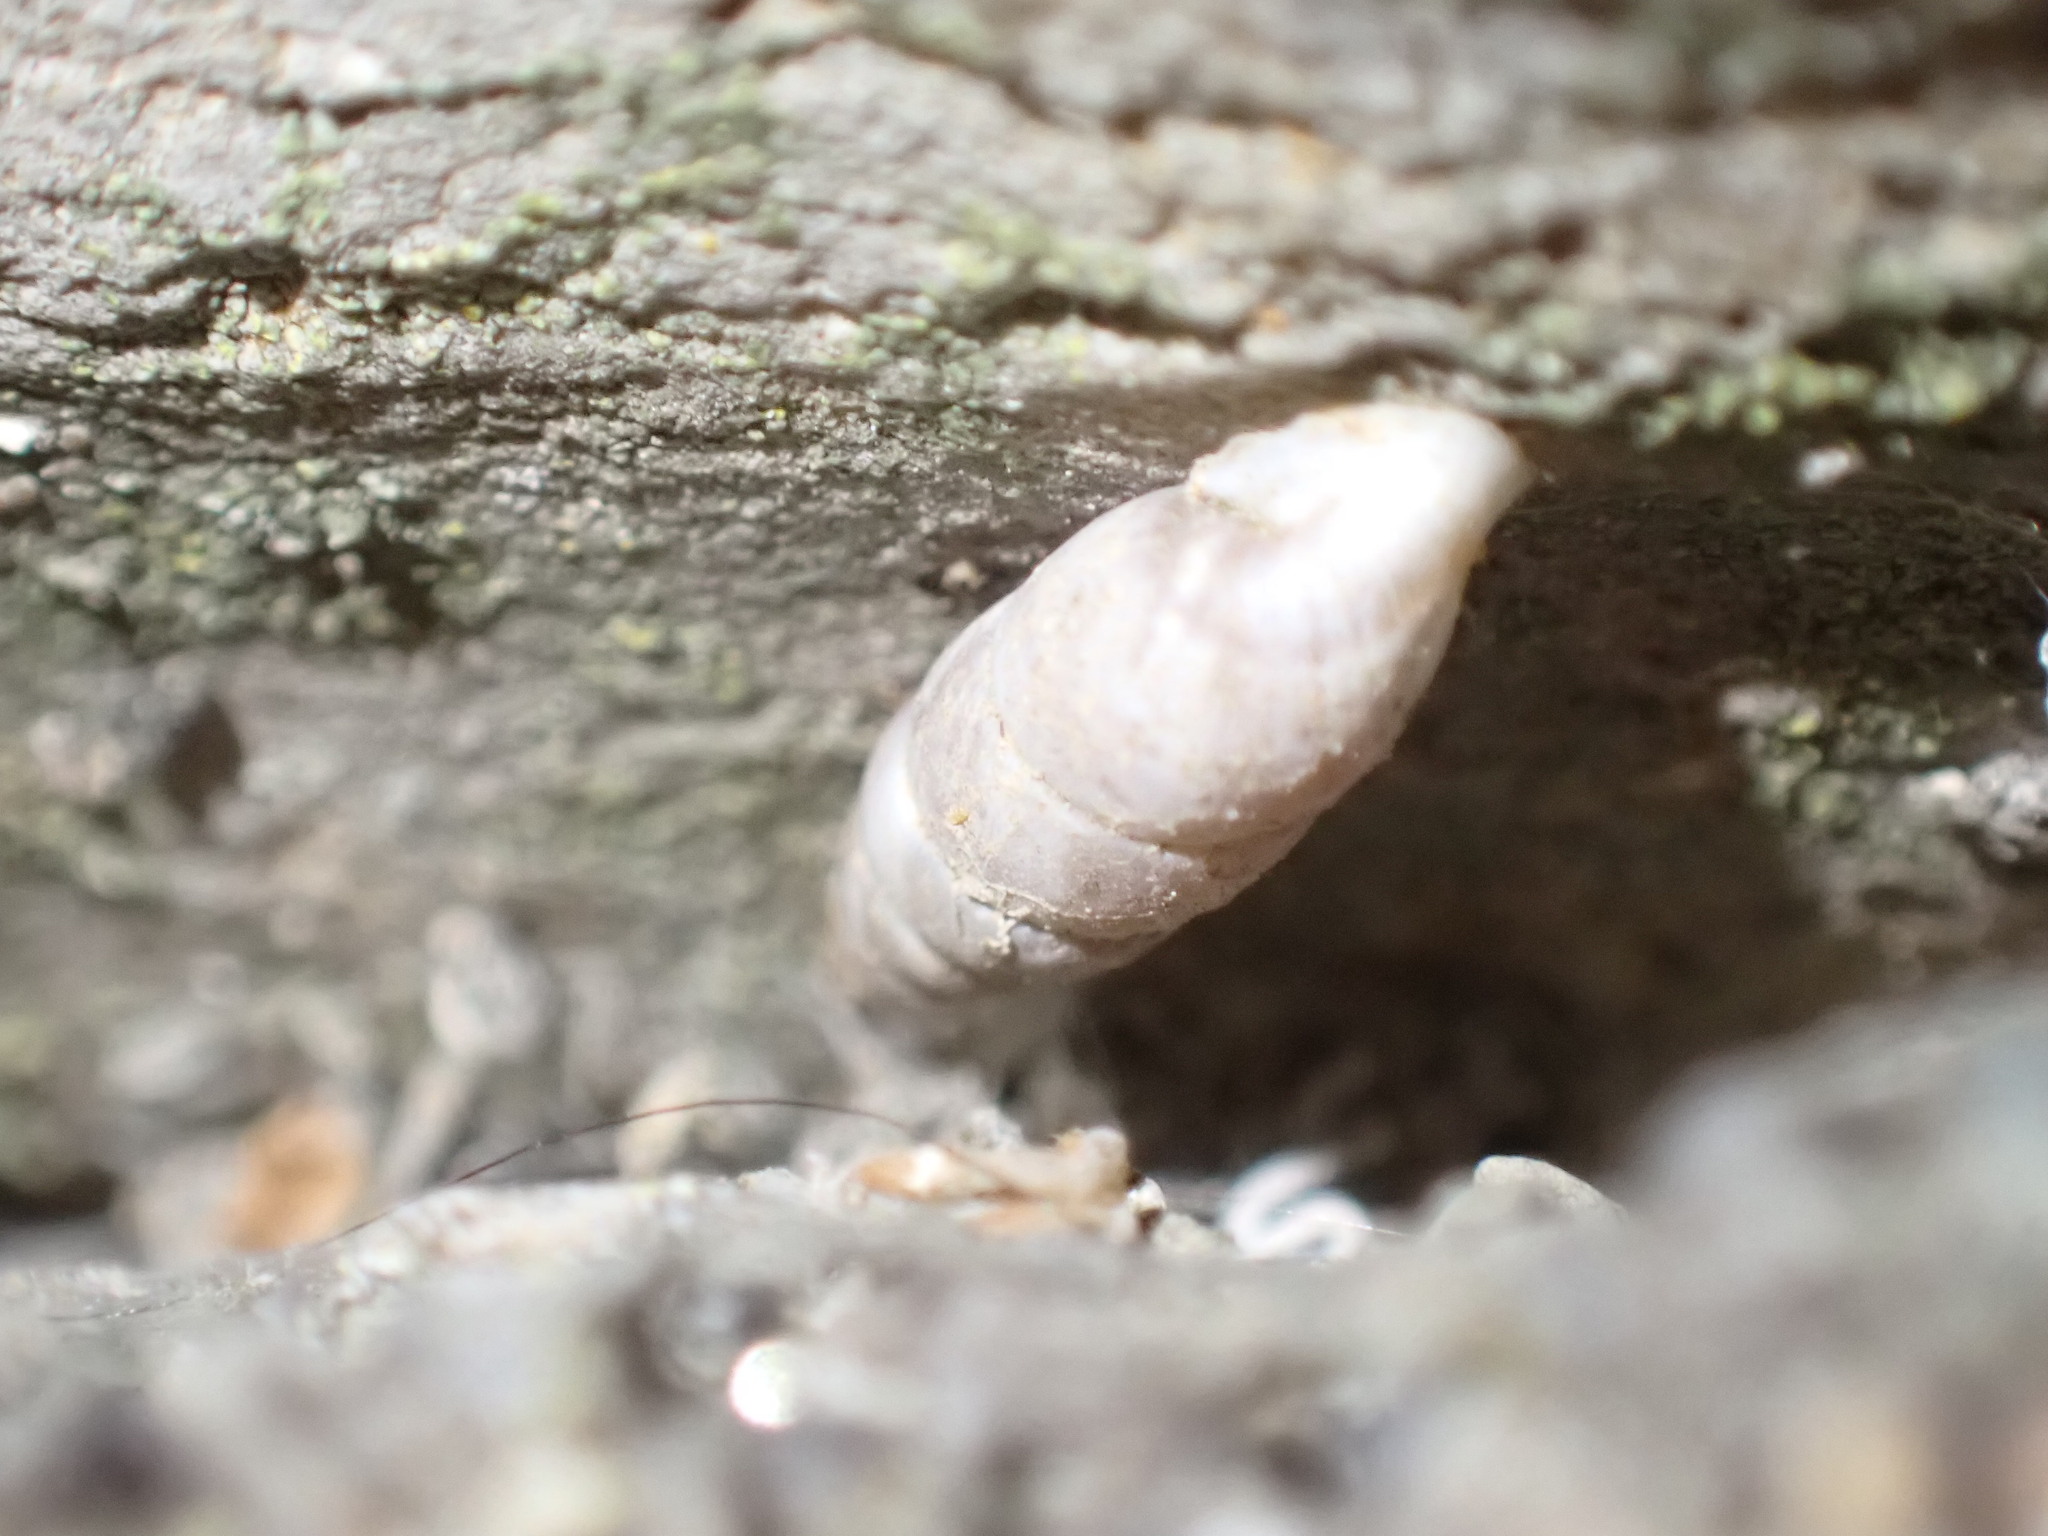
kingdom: Animalia
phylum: Mollusca
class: Gastropoda
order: Stylommatophora
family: Chondrinidae
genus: Solatopupa
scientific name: Solatopupa similis
